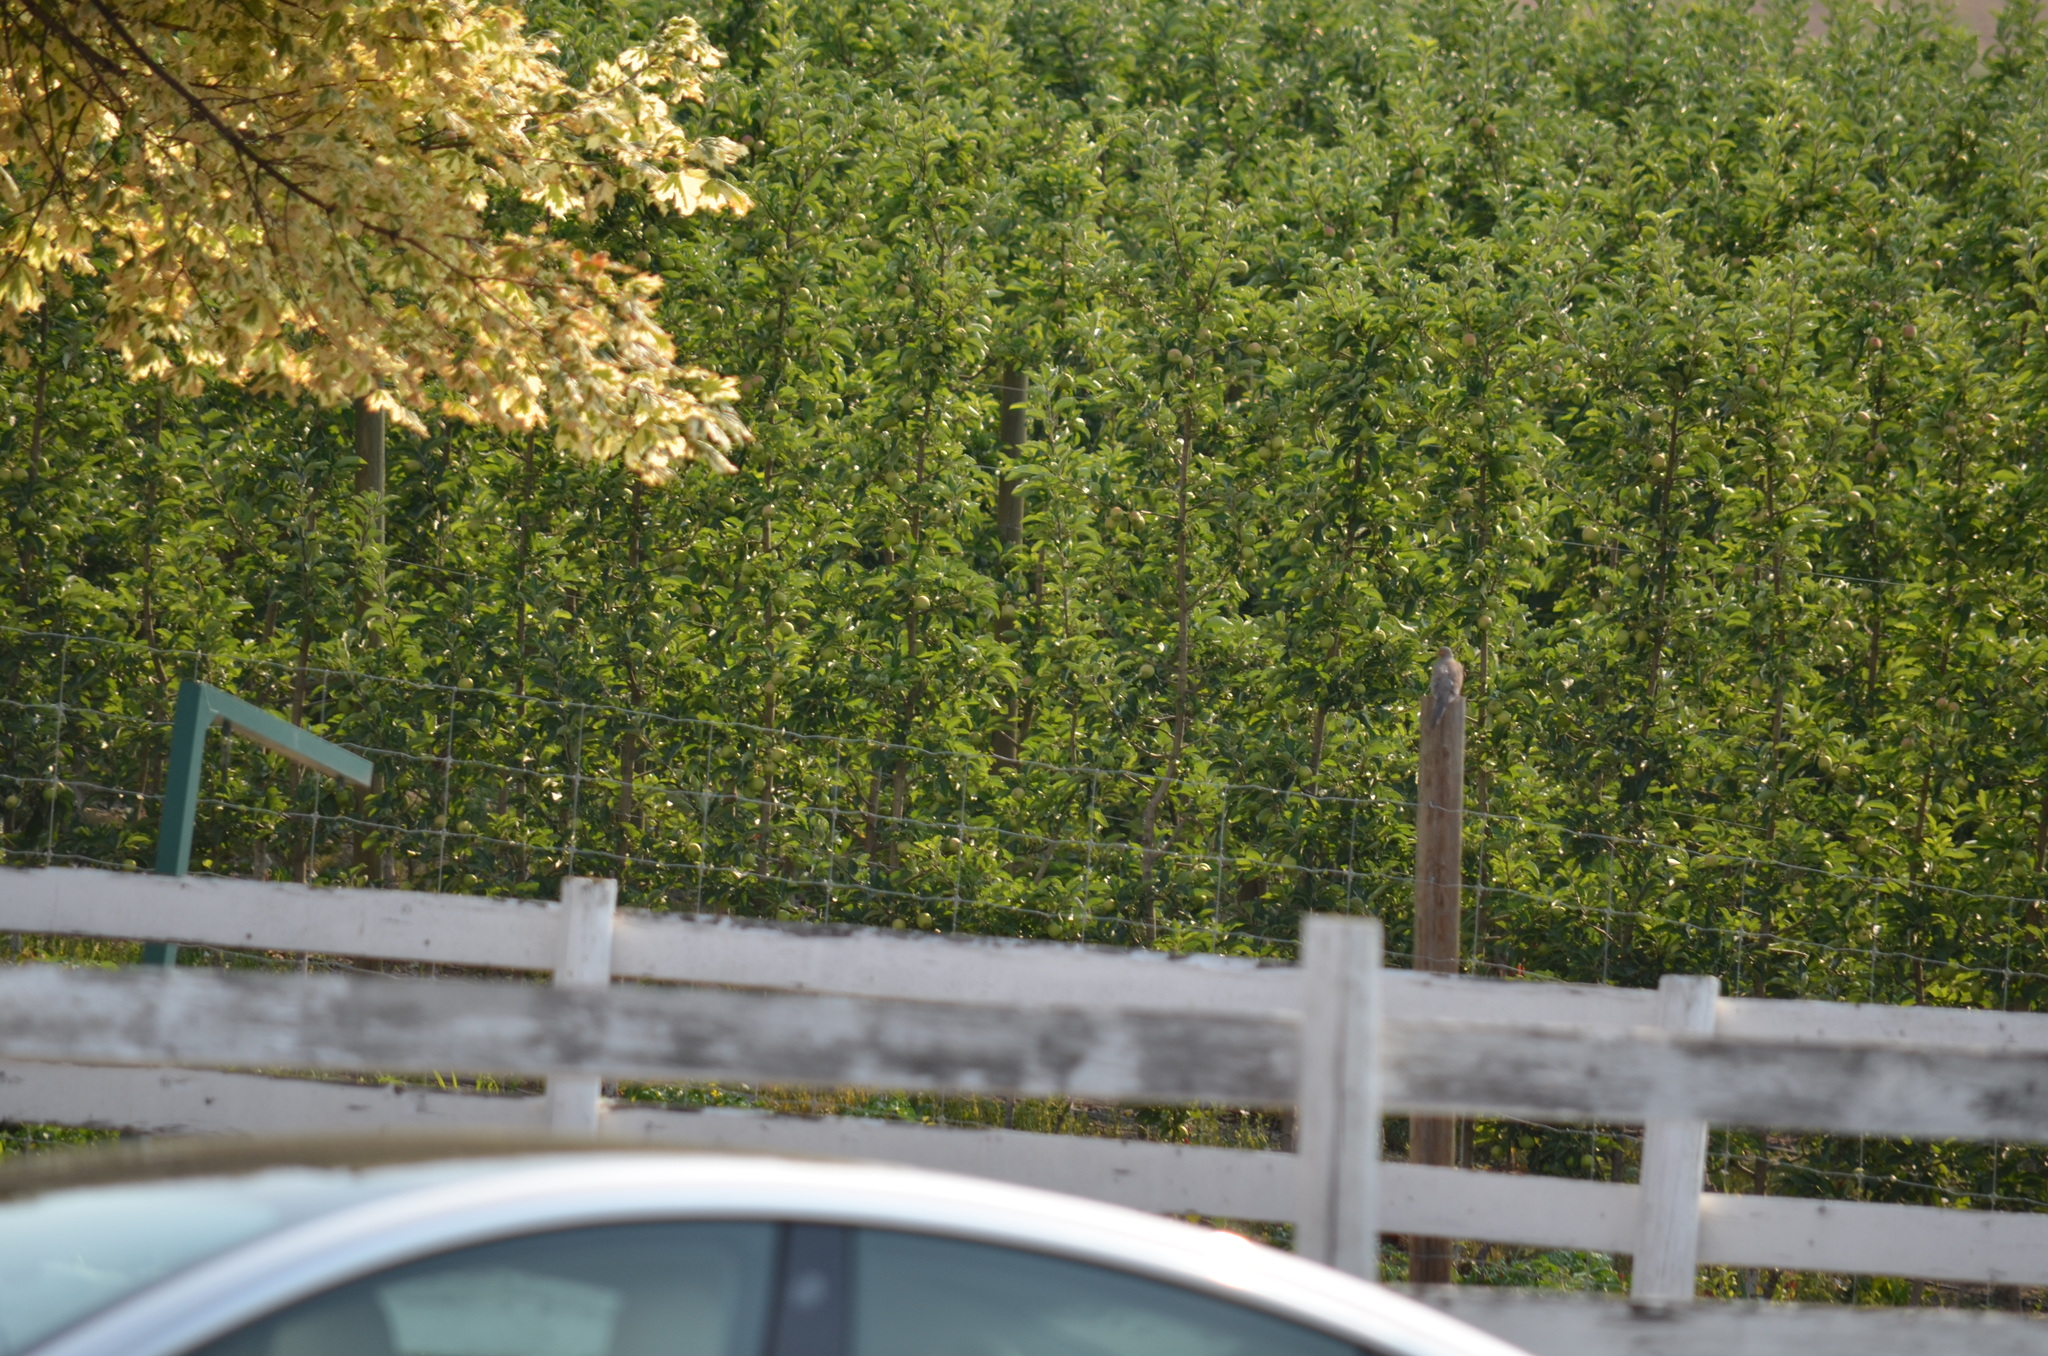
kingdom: Animalia
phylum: Chordata
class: Aves
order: Columbiformes
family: Columbidae
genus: Zenaida
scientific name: Zenaida macroura
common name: Mourning dove
